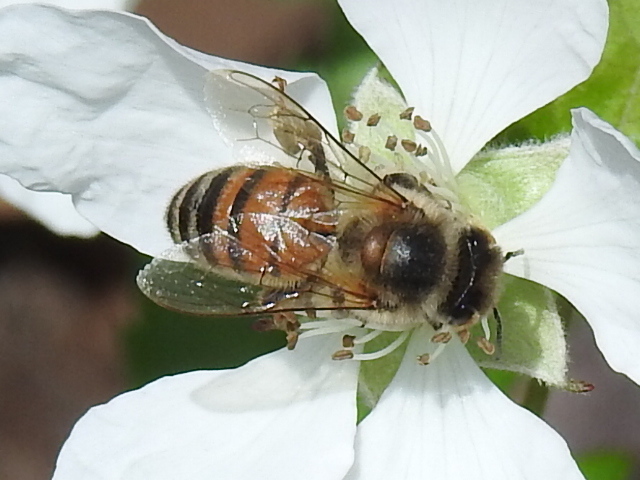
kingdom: Animalia
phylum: Arthropoda
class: Insecta
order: Hymenoptera
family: Apidae
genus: Apis
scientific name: Apis mellifera
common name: Honey bee
